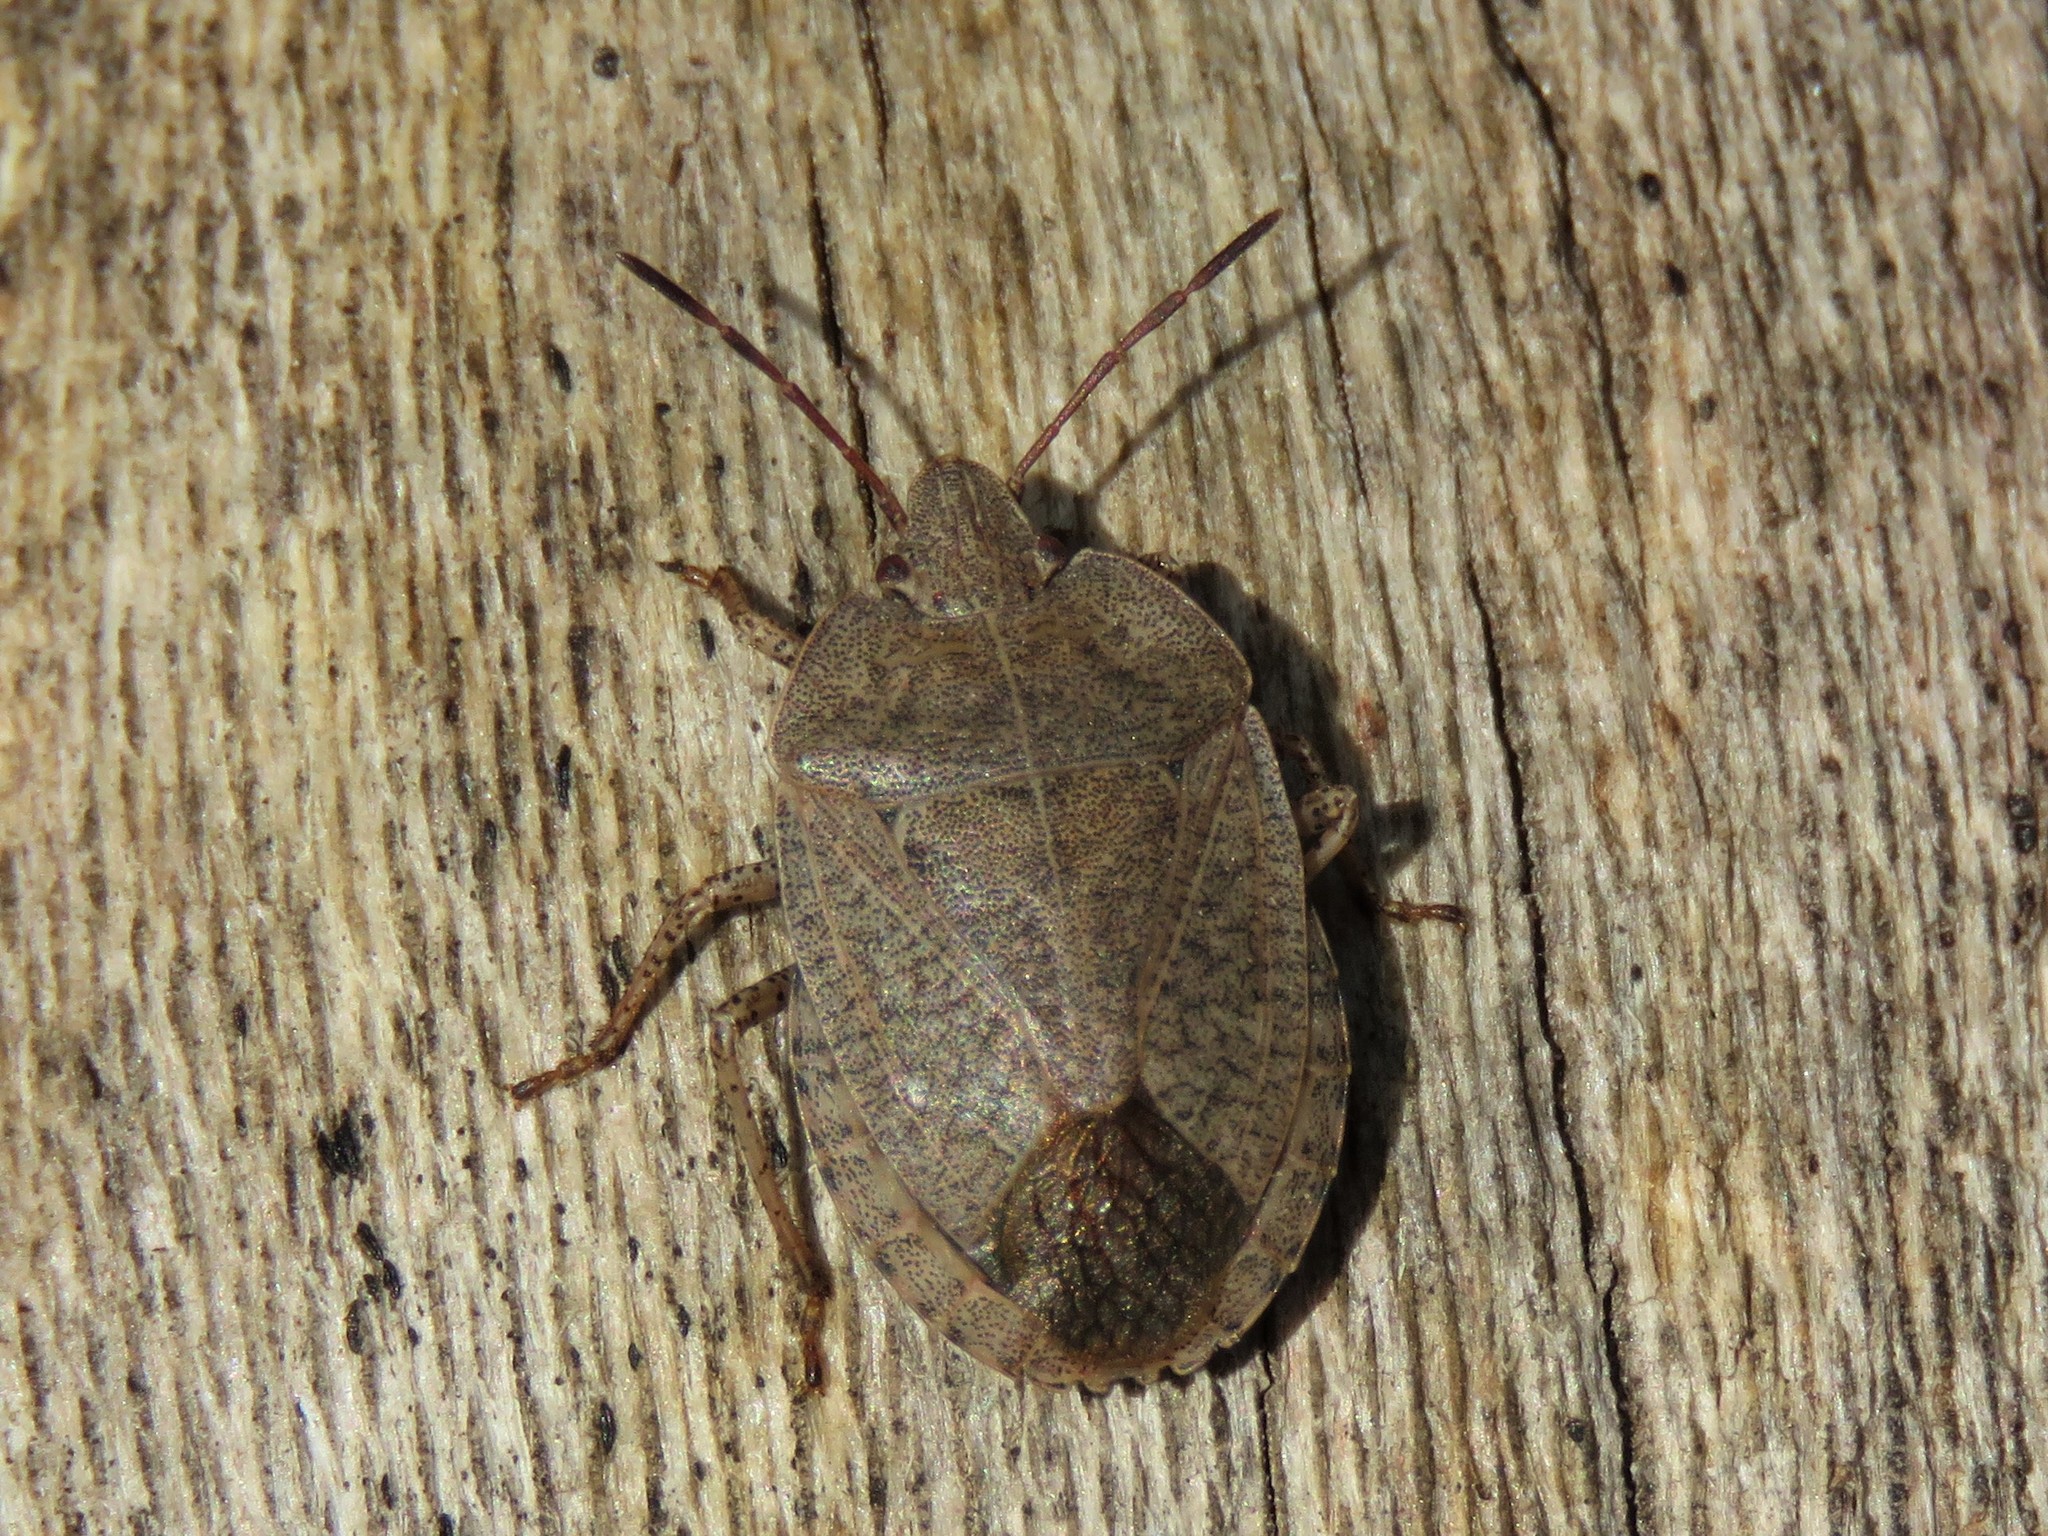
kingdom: Animalia
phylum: Arthropoda
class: Insecta
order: Hemiptera
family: Pentatomidae
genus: Menecles
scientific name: Menecles insertus
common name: Elf shoe stink bug
